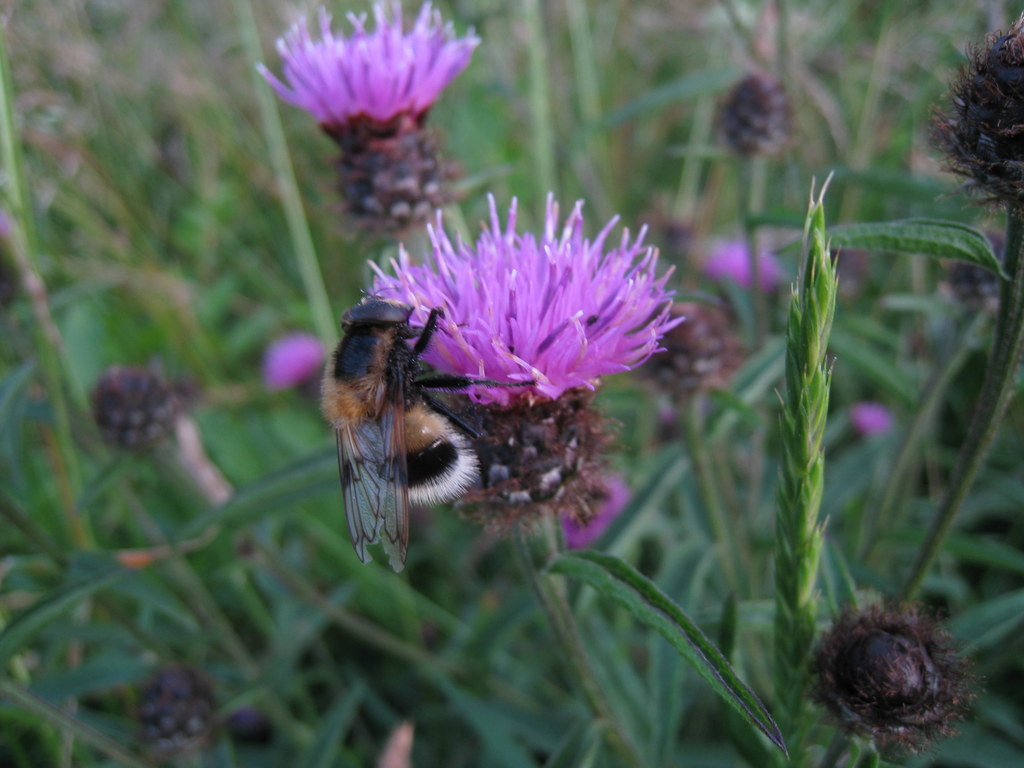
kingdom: Animalia
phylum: Arthropoda
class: Insecta
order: Diptera
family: Syrphidae
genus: Volucella
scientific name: Volucella bombylans
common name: Bumble bee hover fly
